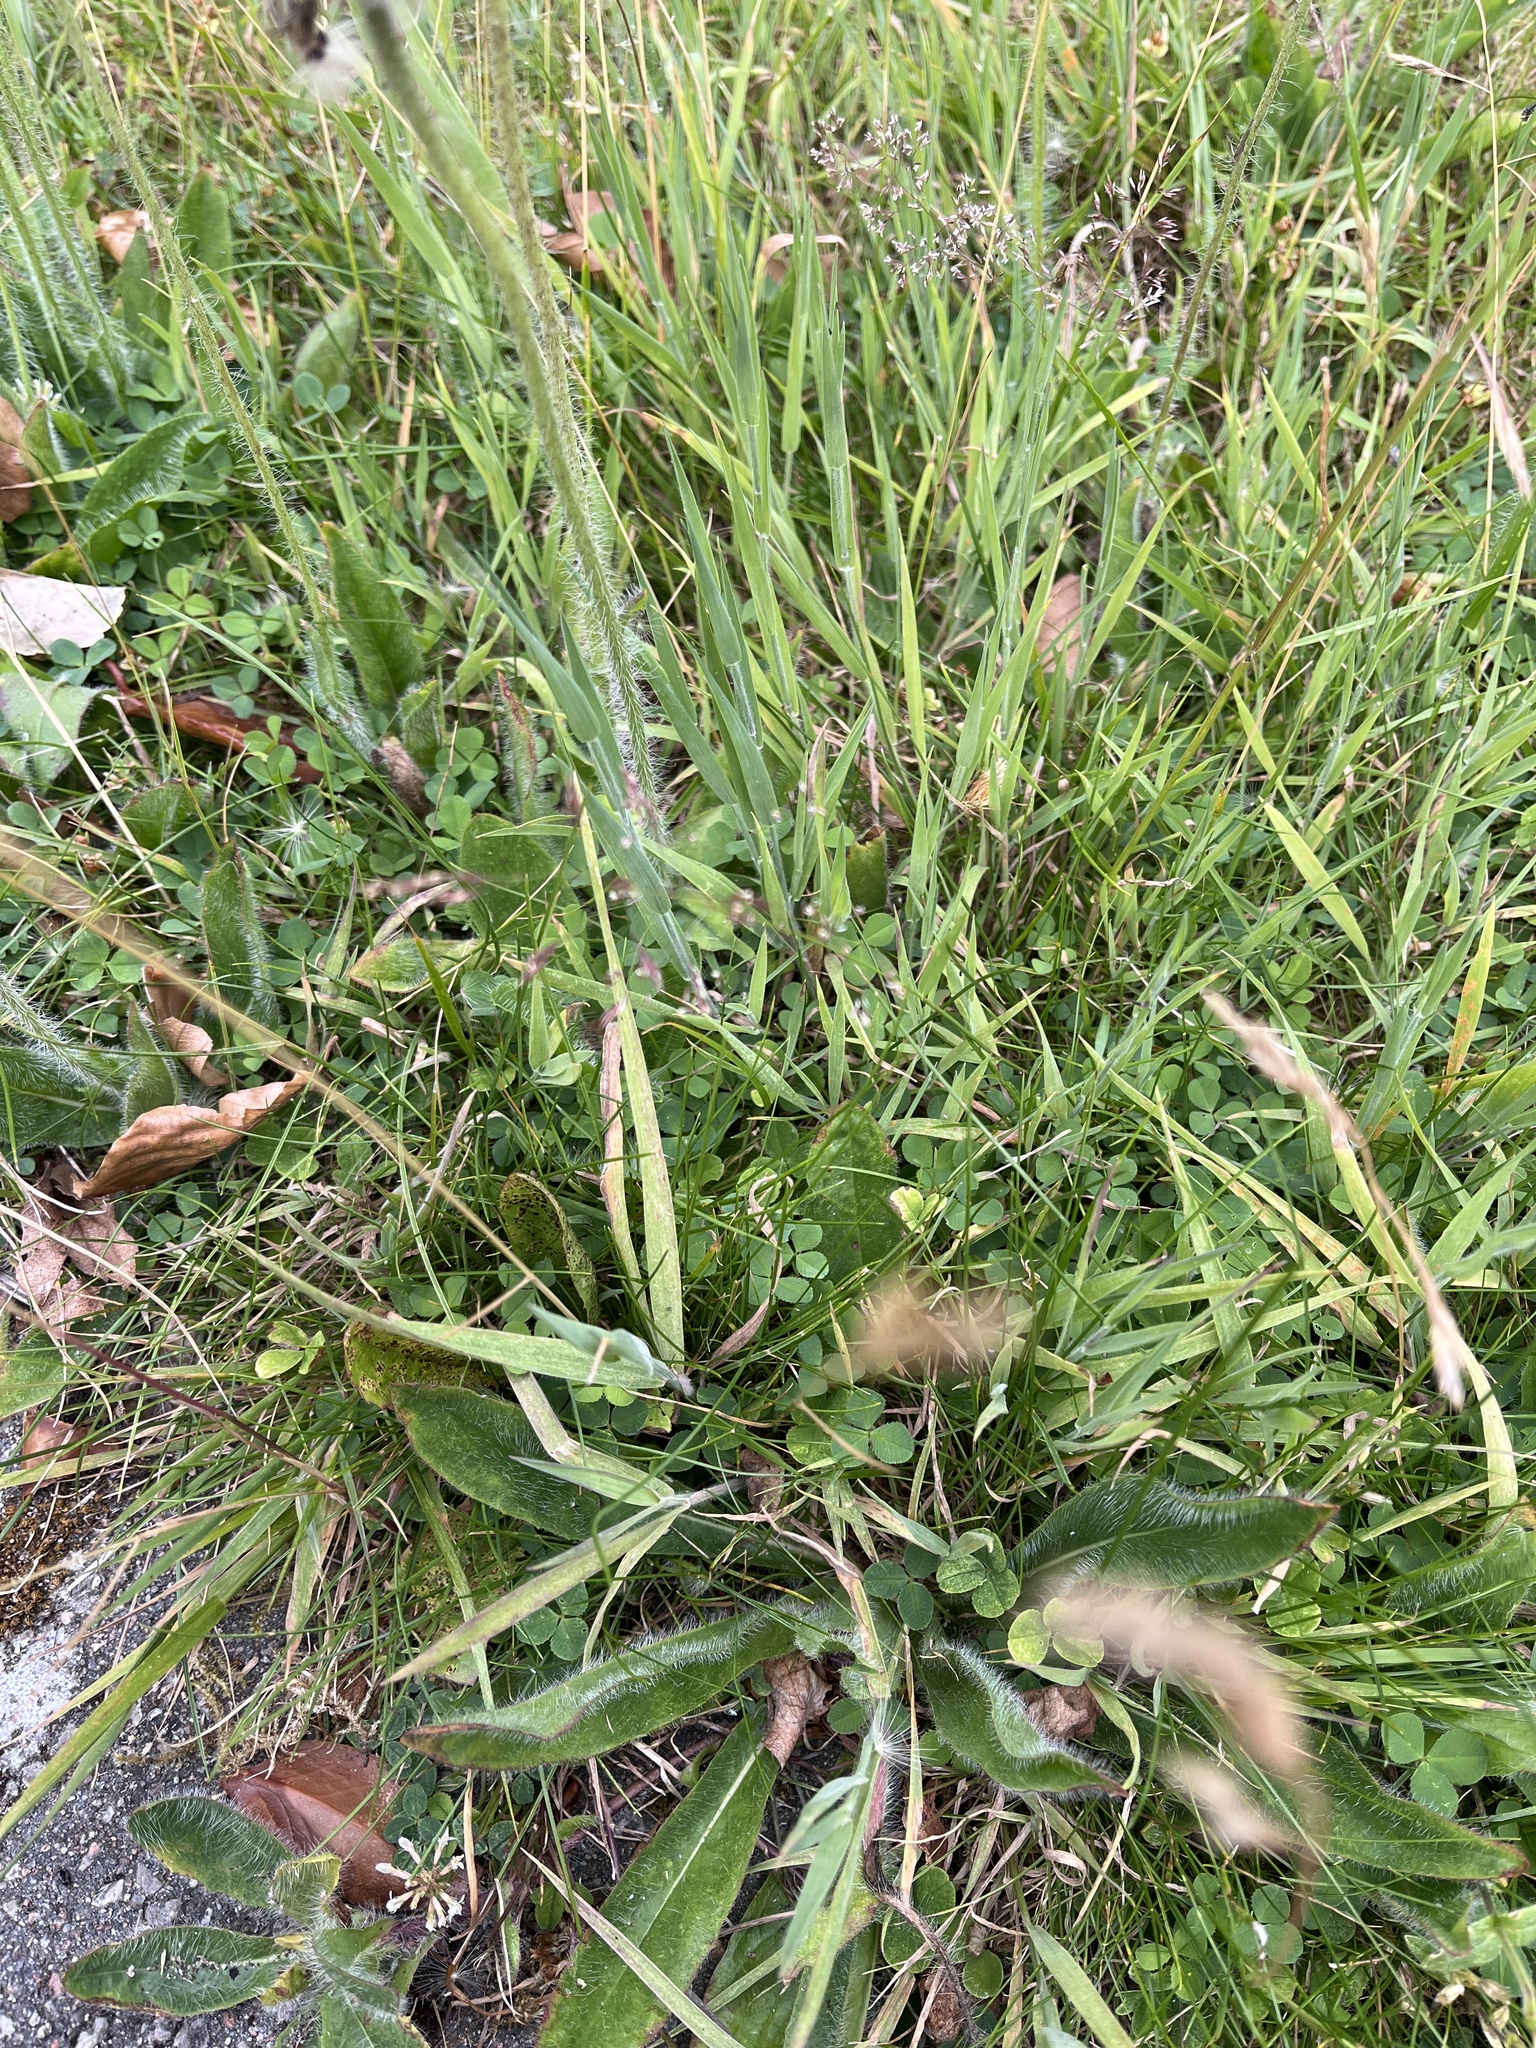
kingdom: Plantae
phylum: Tracheophyta
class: Magnoliopsida
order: Asterales
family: Asteraceae
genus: Pilosella
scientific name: Pilosella aurantiaca
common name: Fox-and-cubs
